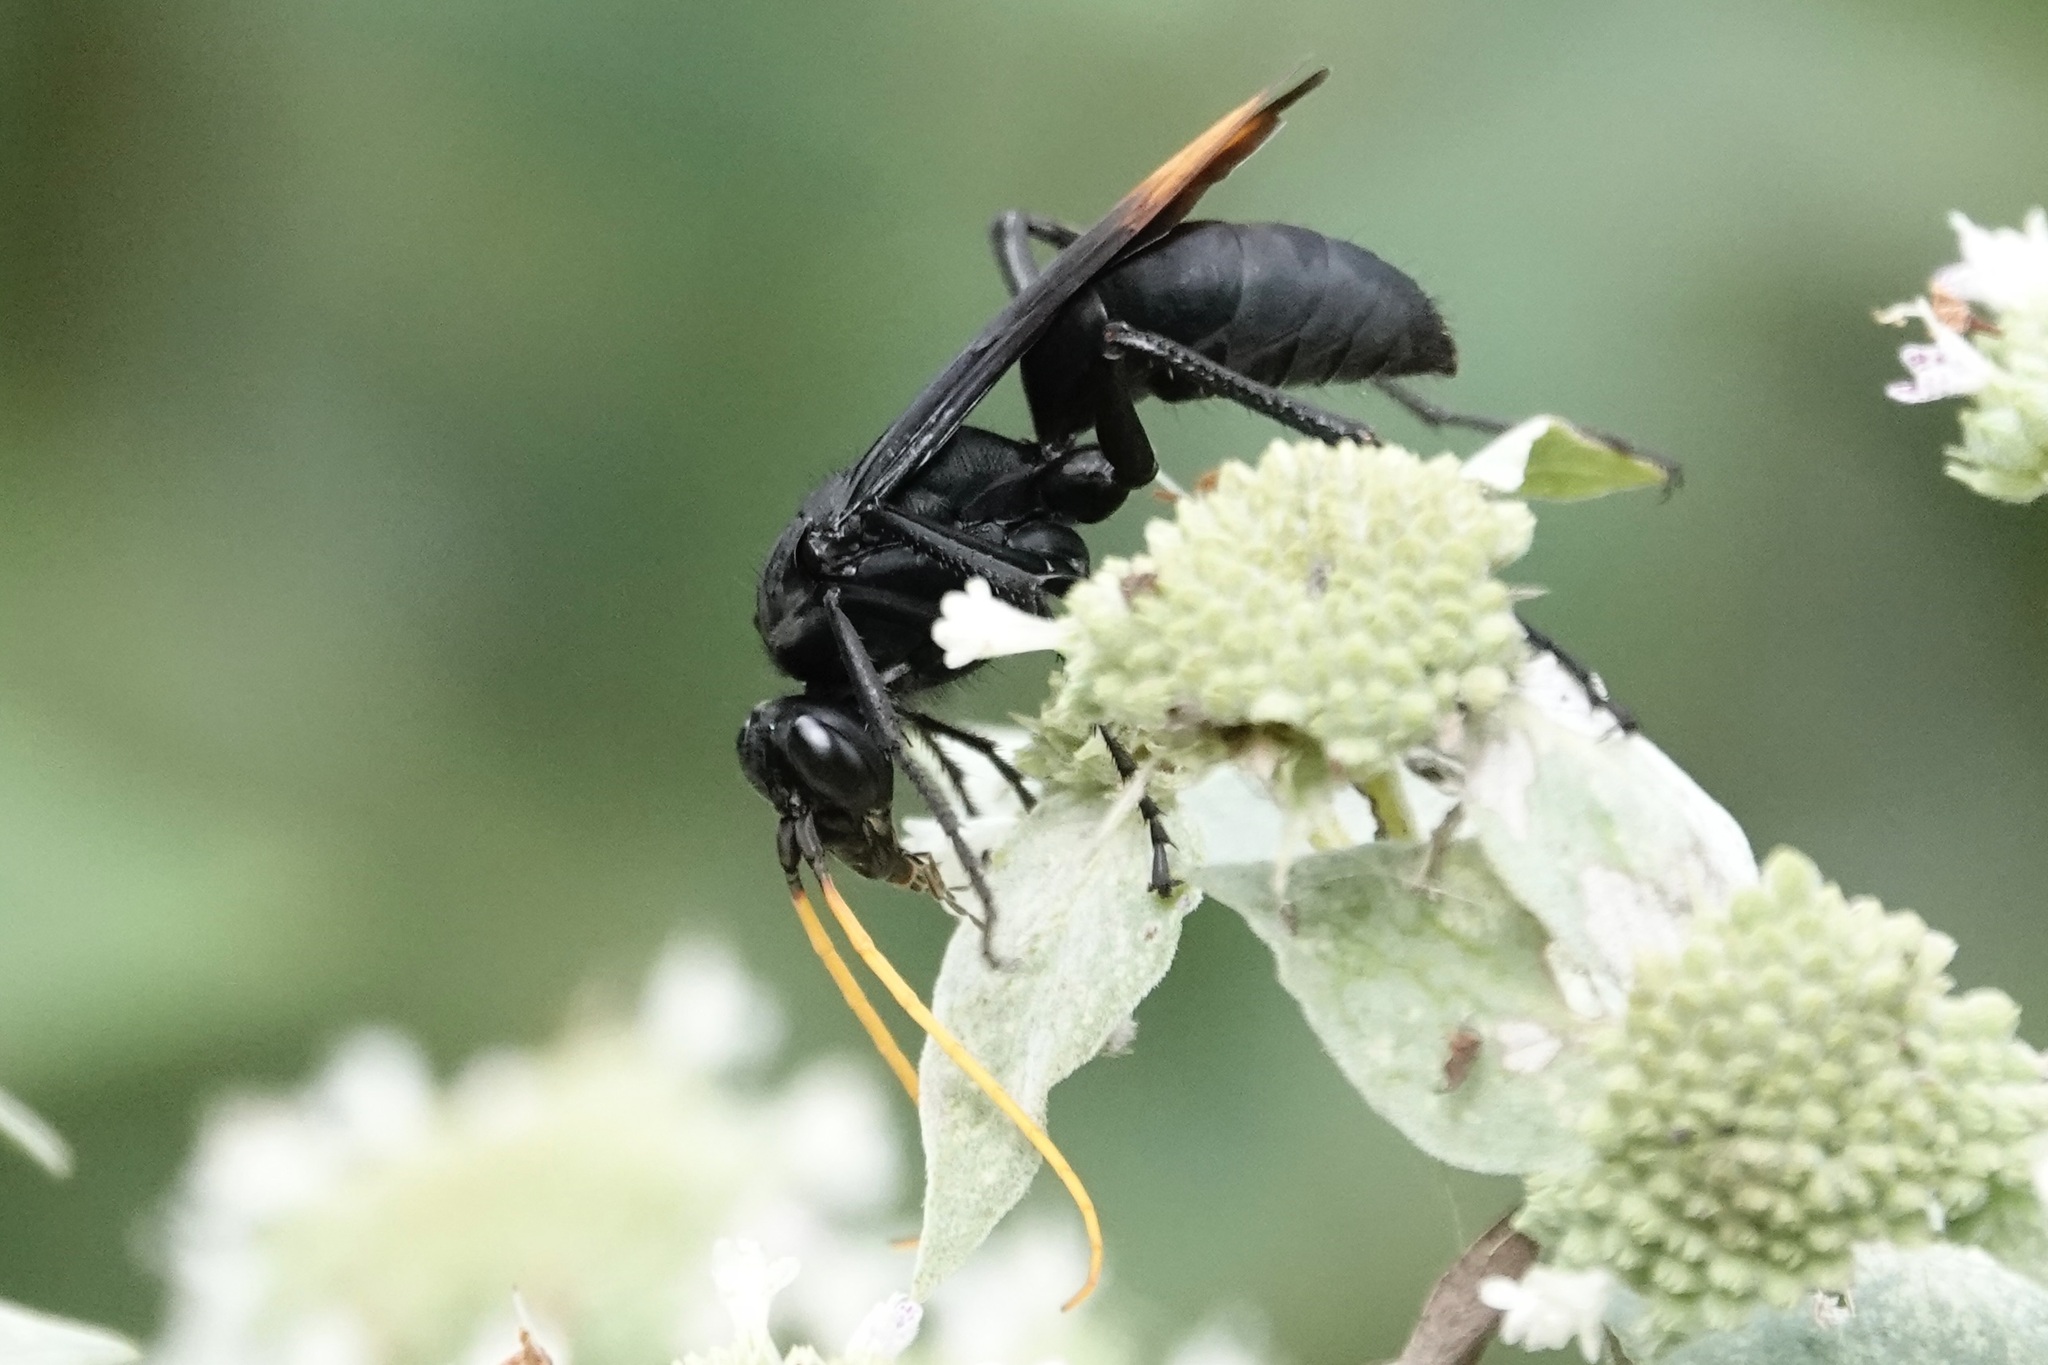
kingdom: Animalia
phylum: Arthropoda
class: Insecta
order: Hymenoptera
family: Pompilidae
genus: Entypus
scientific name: Entypus unifasciatus
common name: Eastern tawny-horned spider wasp
